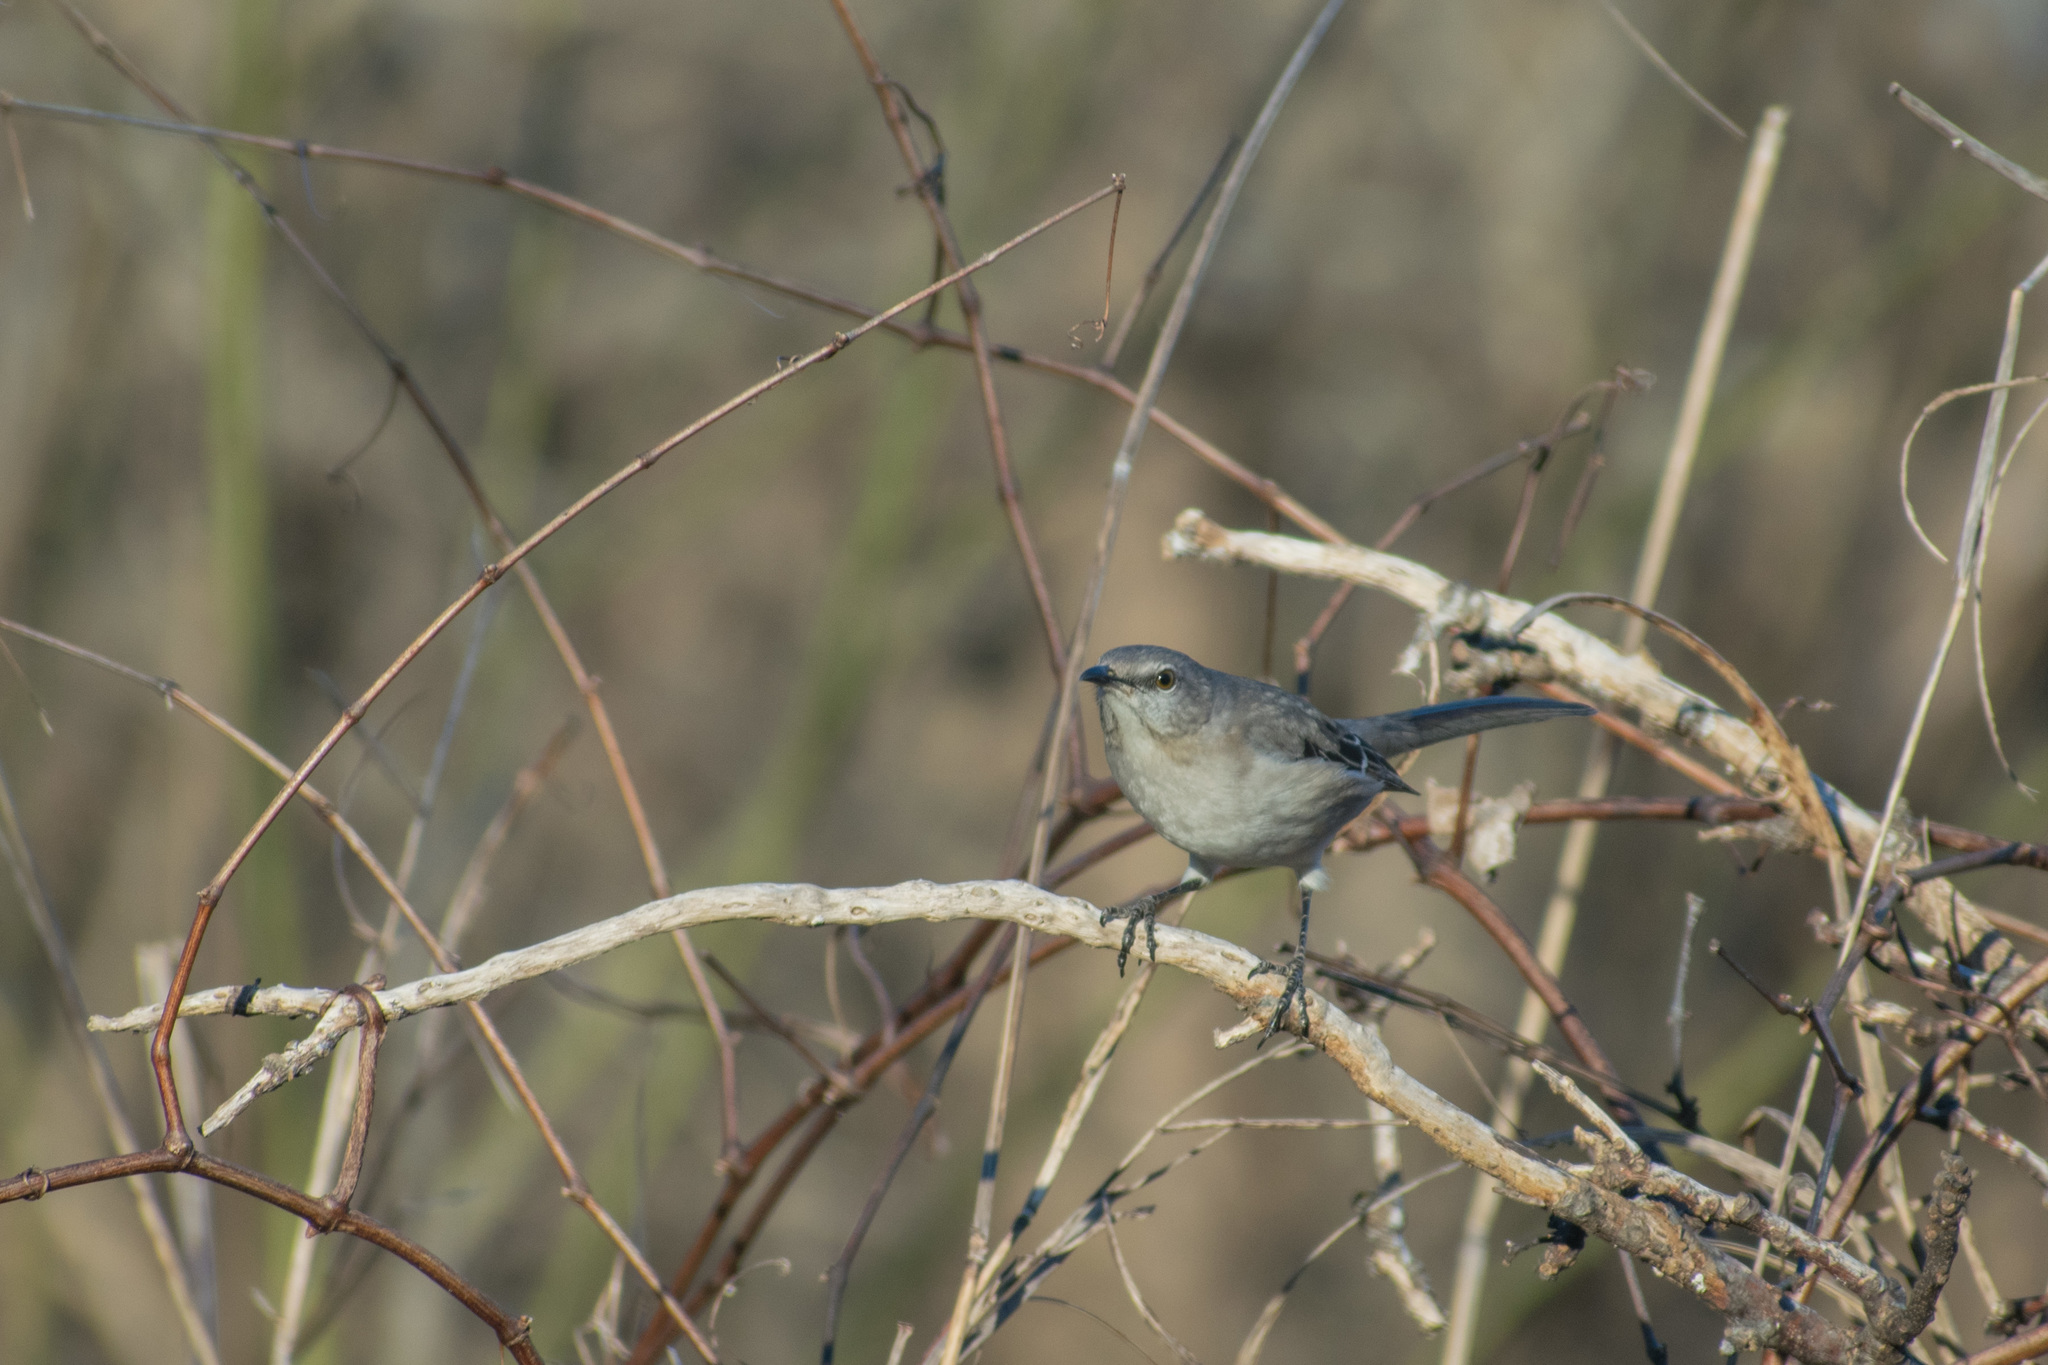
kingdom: Animalia
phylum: Chordata
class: Aves
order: Passeriformes
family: Mimidae
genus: Mimus
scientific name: Mimus polyglottos
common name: Northern mockingbird
